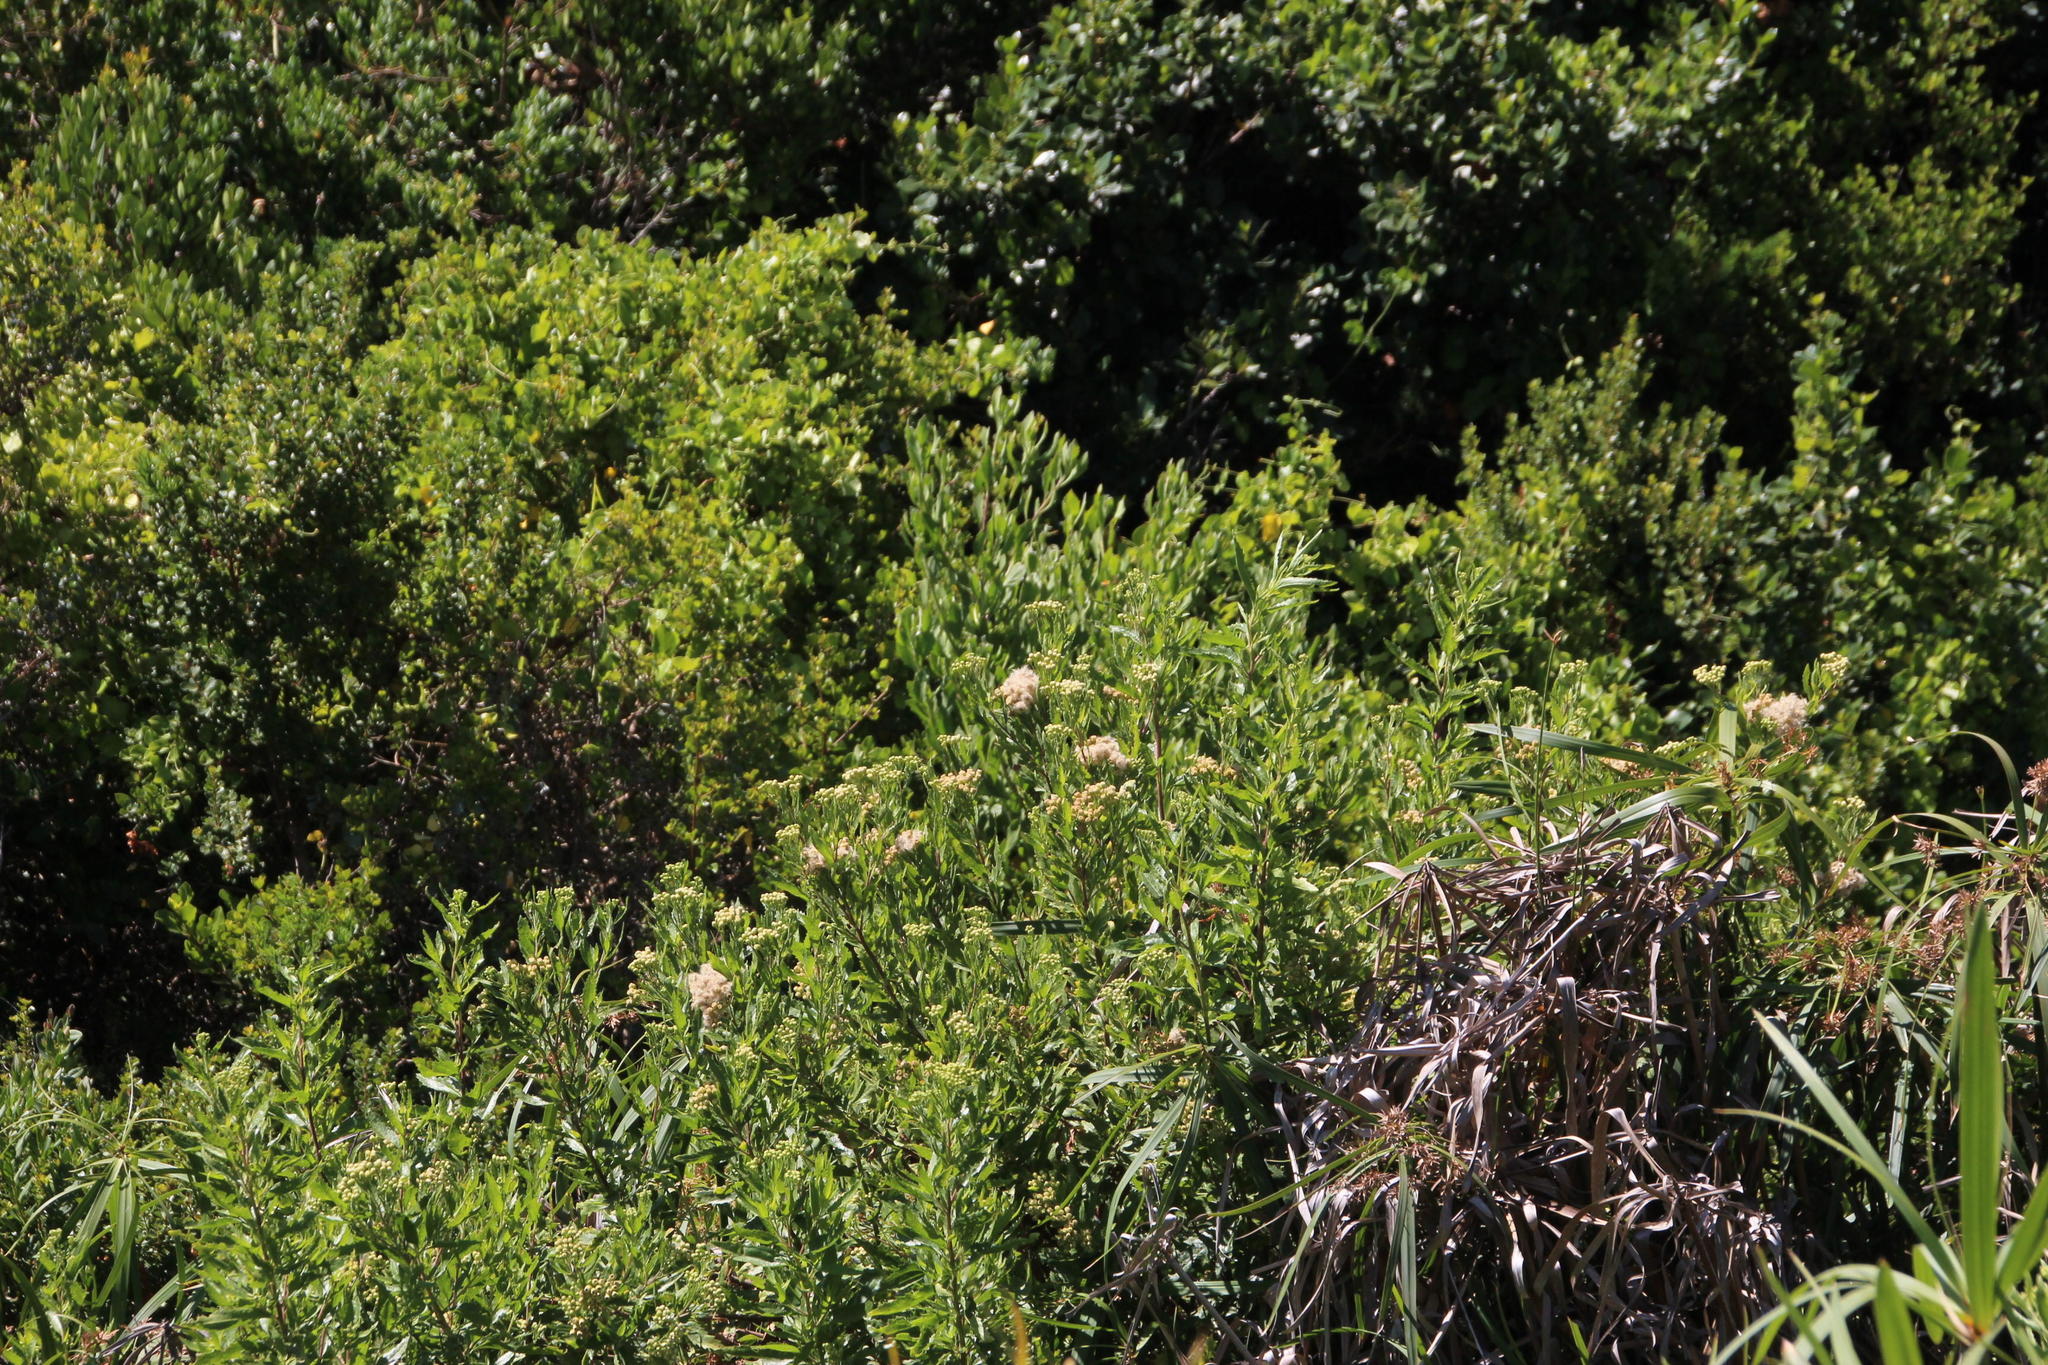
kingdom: Plantae
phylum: Tracheophyta
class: Magnoliopsida
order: Asterales
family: Asteraceae
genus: Nidorella
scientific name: Nidorella ivifolia
